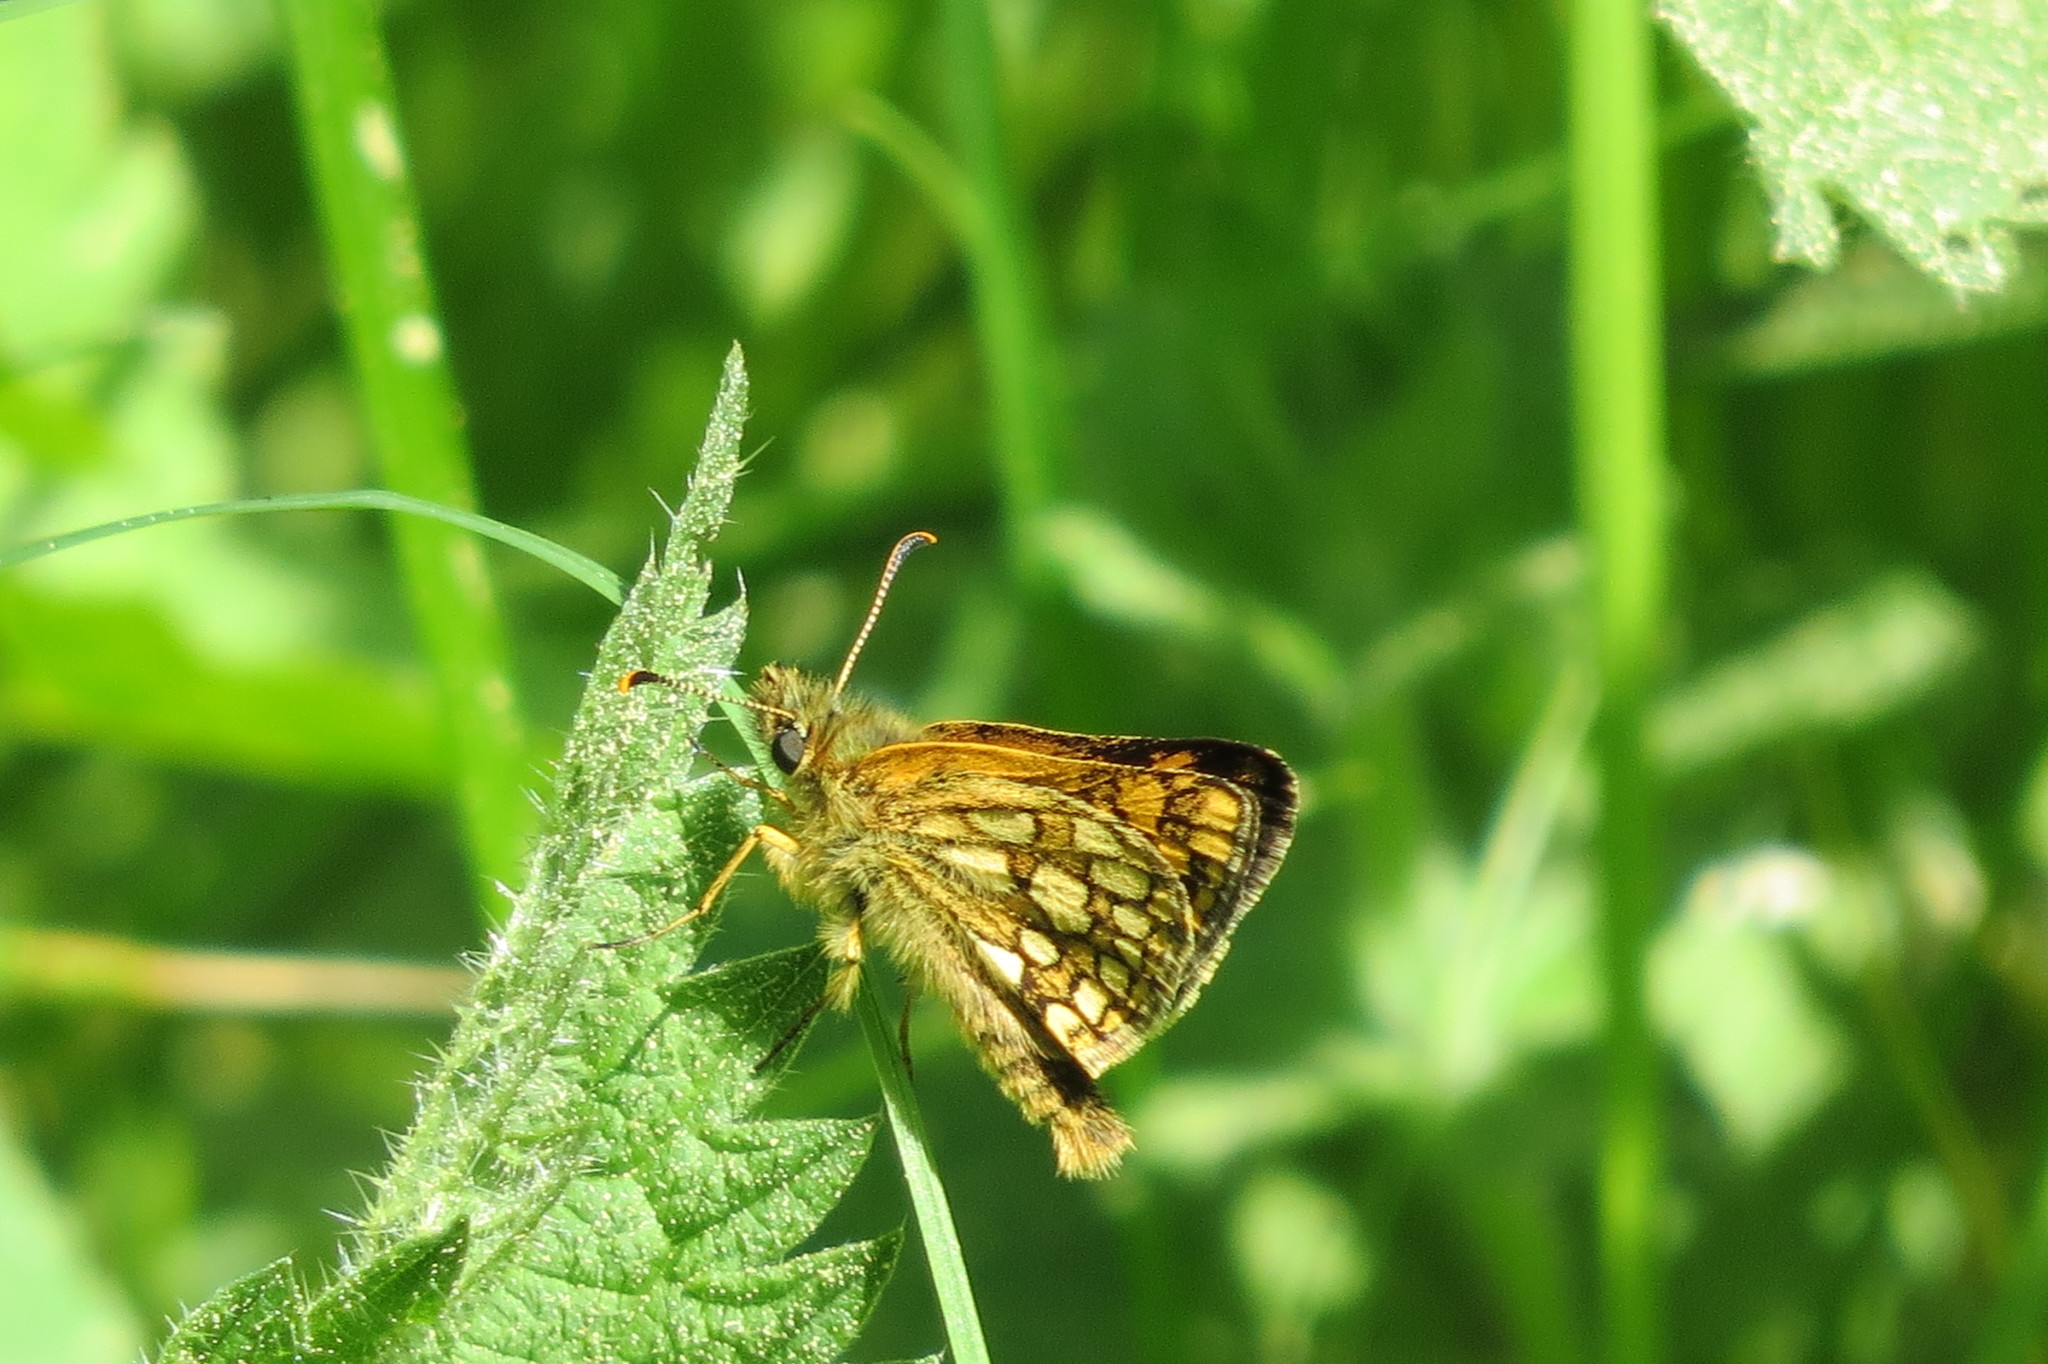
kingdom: Animalia
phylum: Arthropoda
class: Insecta
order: Lepidoptera
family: Hesperiidae
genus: Carterocephalus
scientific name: Carterocephalus palaemon
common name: Chequered skipper
